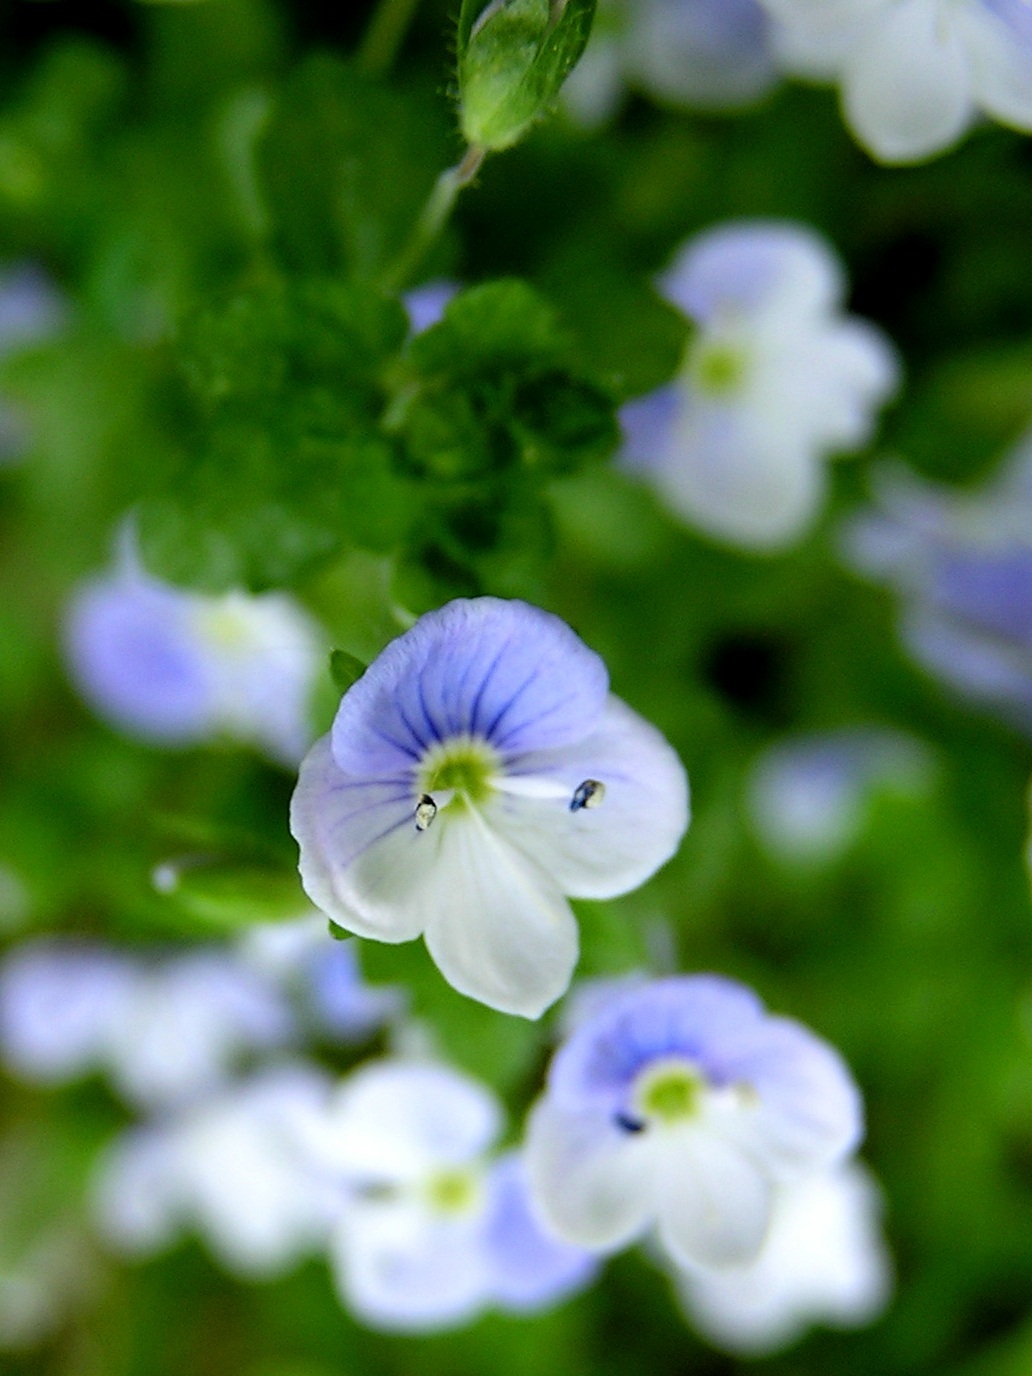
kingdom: Plantae
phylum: Tracheophyta
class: Magnoliopsida
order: Lamiales
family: Plantaginaceae
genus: Veronica
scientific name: Veronica filiformis
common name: Slender speedwell
